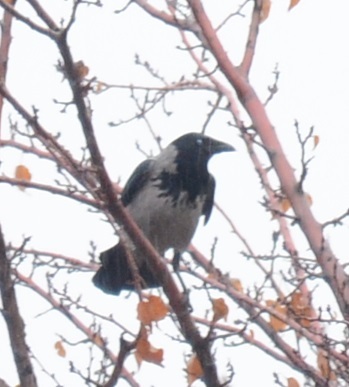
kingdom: Animalia
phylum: Chordata
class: Aves
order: Passeriformes
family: Corvidae
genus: Corvus
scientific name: Corvus cornix
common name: Hooded crow
